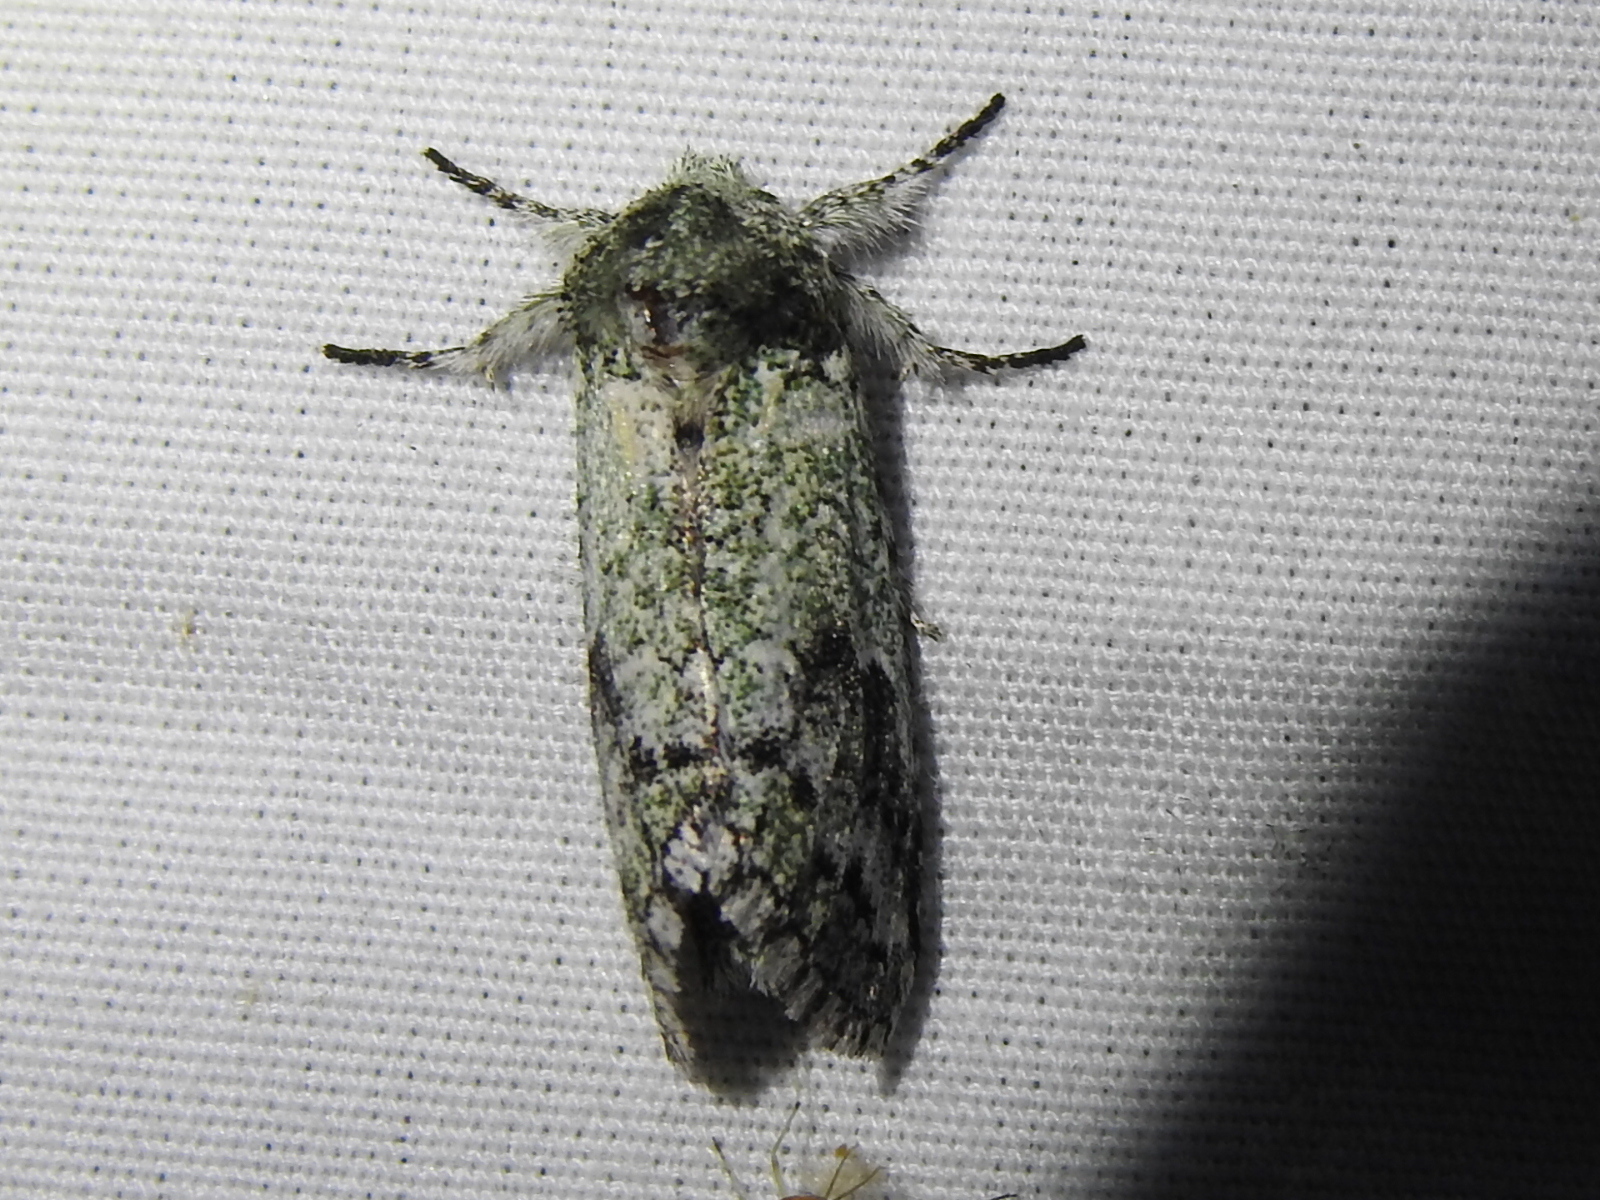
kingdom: Animalia
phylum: Arthropoda
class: Insecta
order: Lepidoptera
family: Notodontidae
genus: Litodonta
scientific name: Litodonta hydromeli
